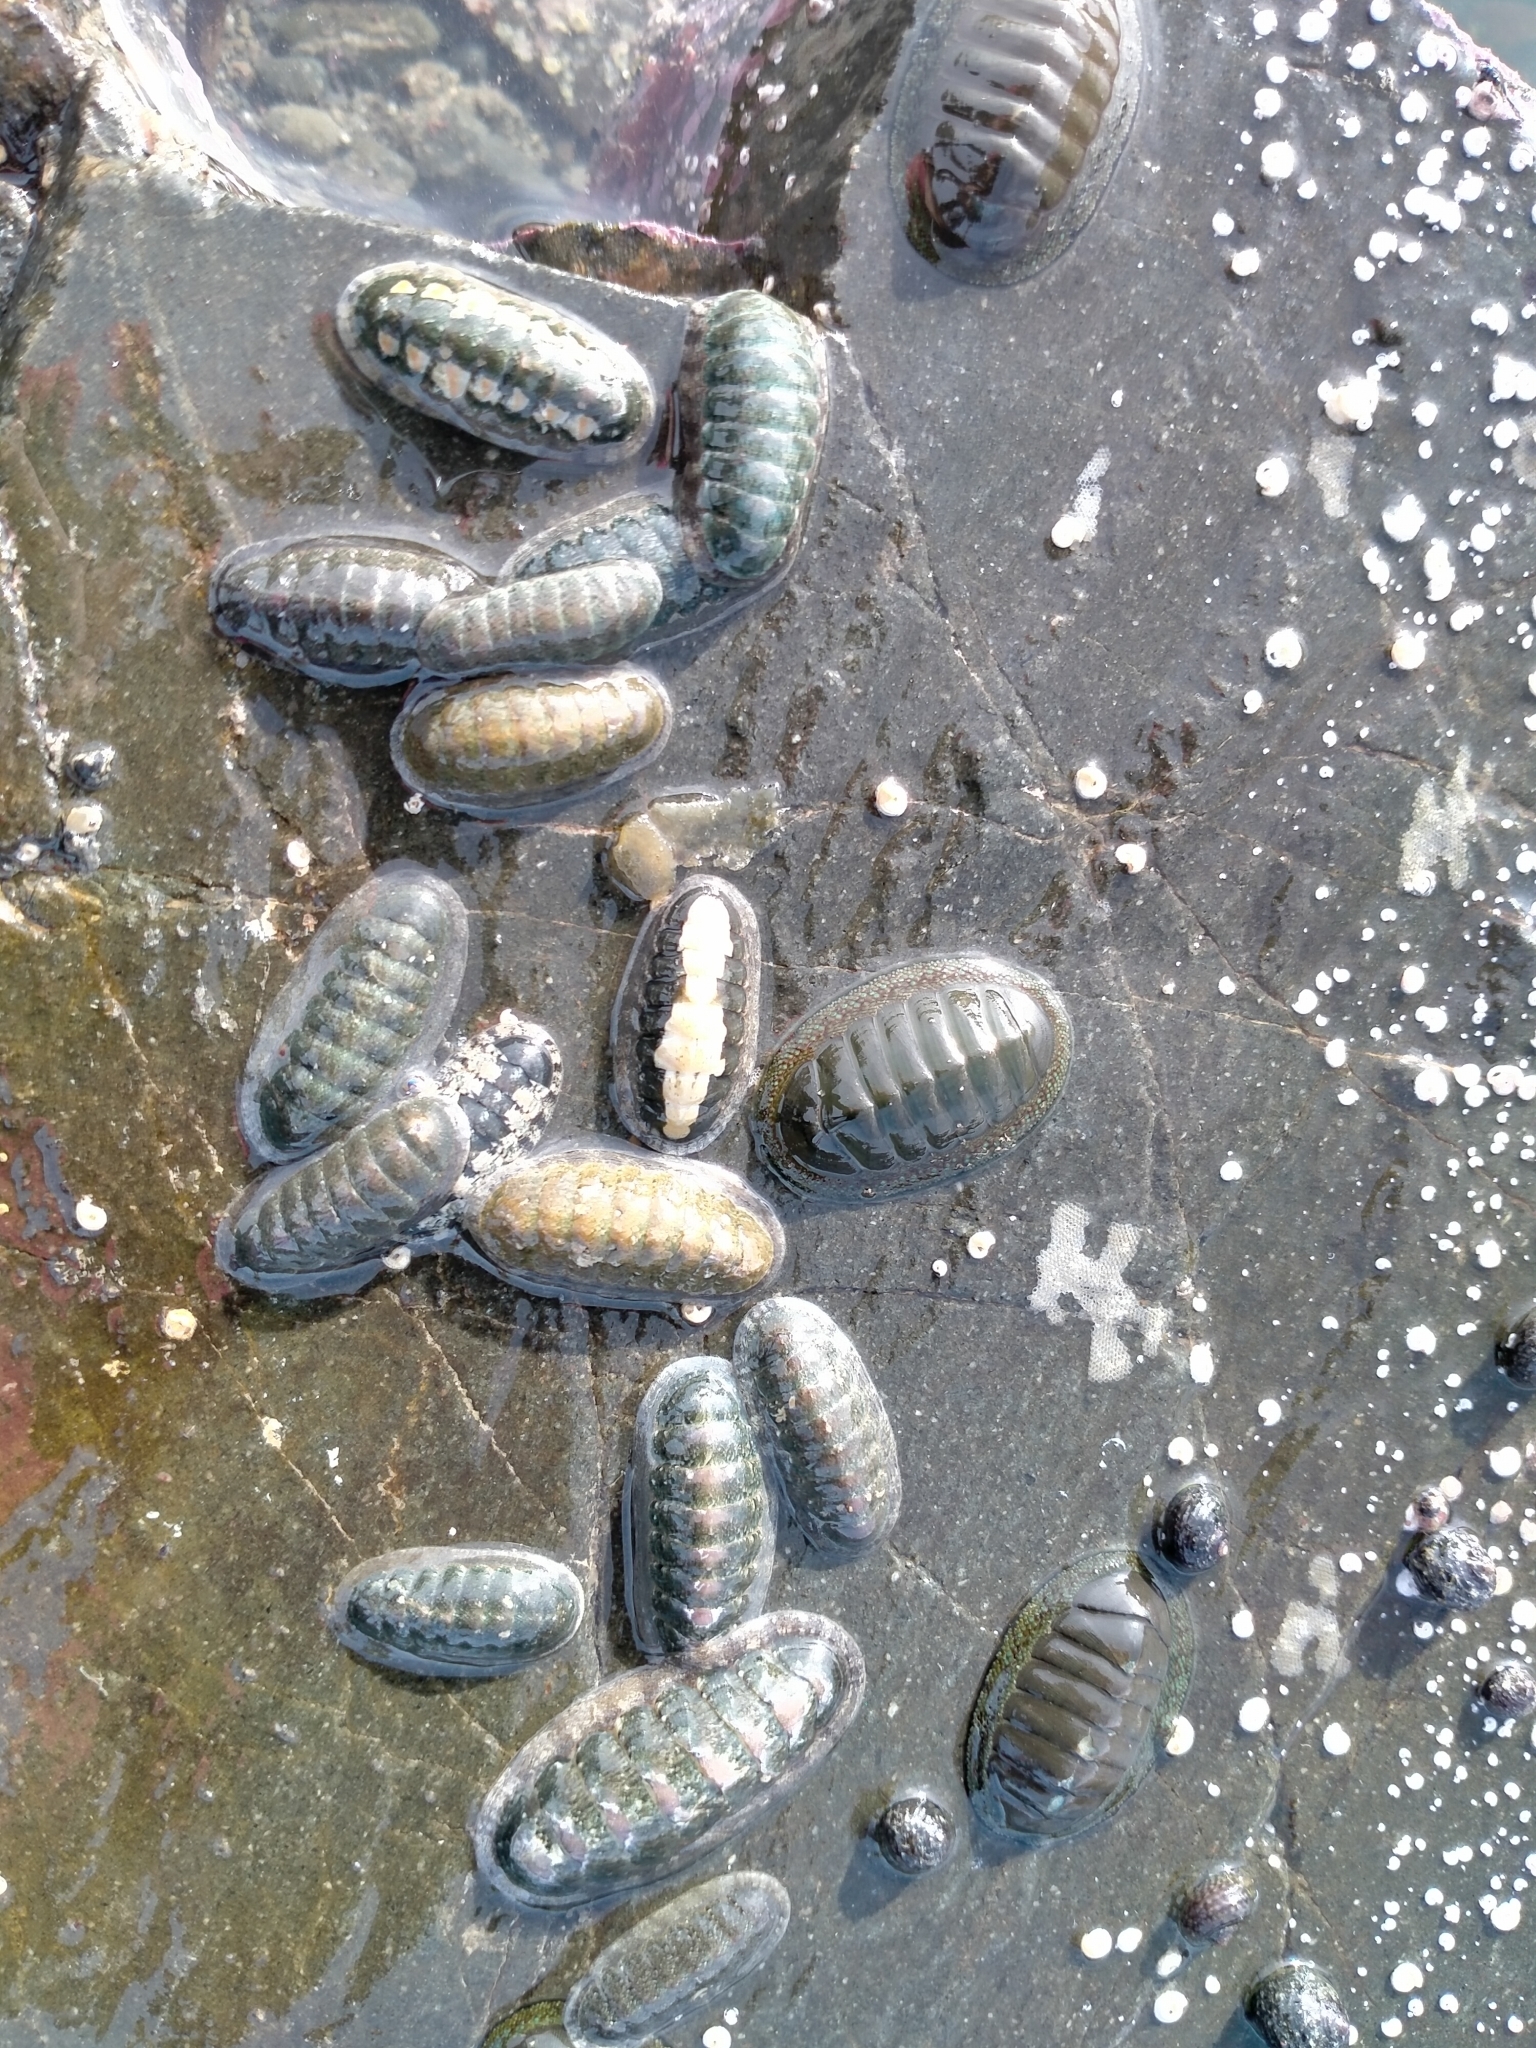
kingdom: Animalia
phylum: Mollusca
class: Polyplacophora
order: Chitonida
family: Chitonidae
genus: Chiton
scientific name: Chiton glaucus
